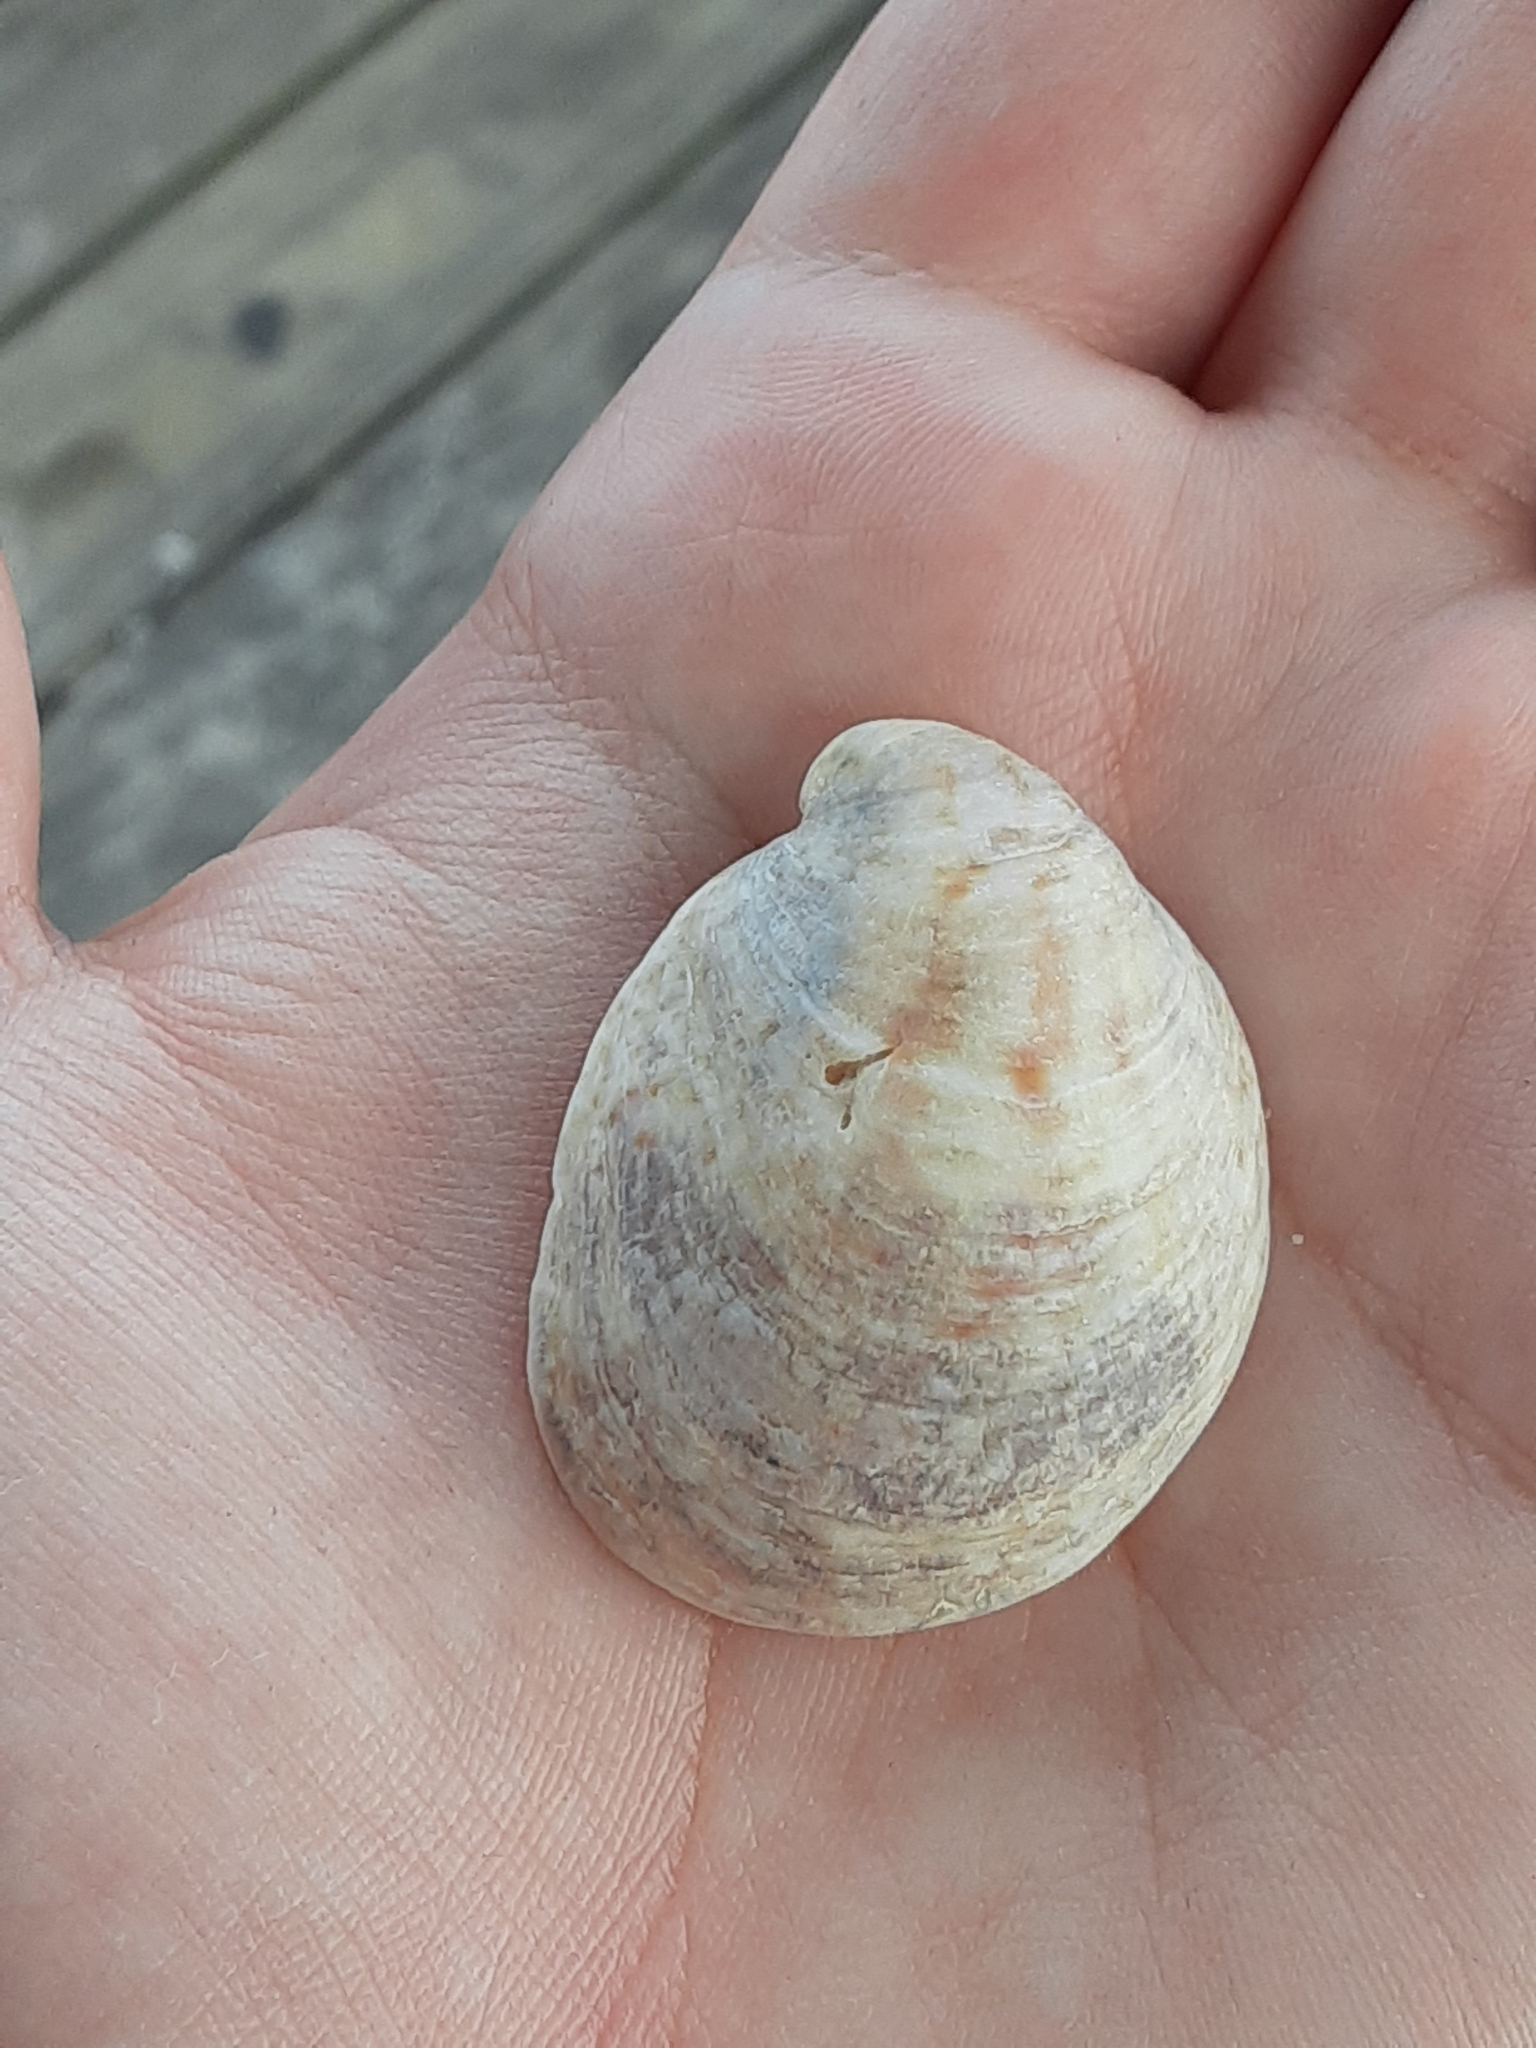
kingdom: Animalia
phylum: Mollusca
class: Gastropoda
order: Littorinimorpha
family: Calyptraeidae
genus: Crepidula
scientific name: Crepidula fornicata
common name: Slipper limpet
